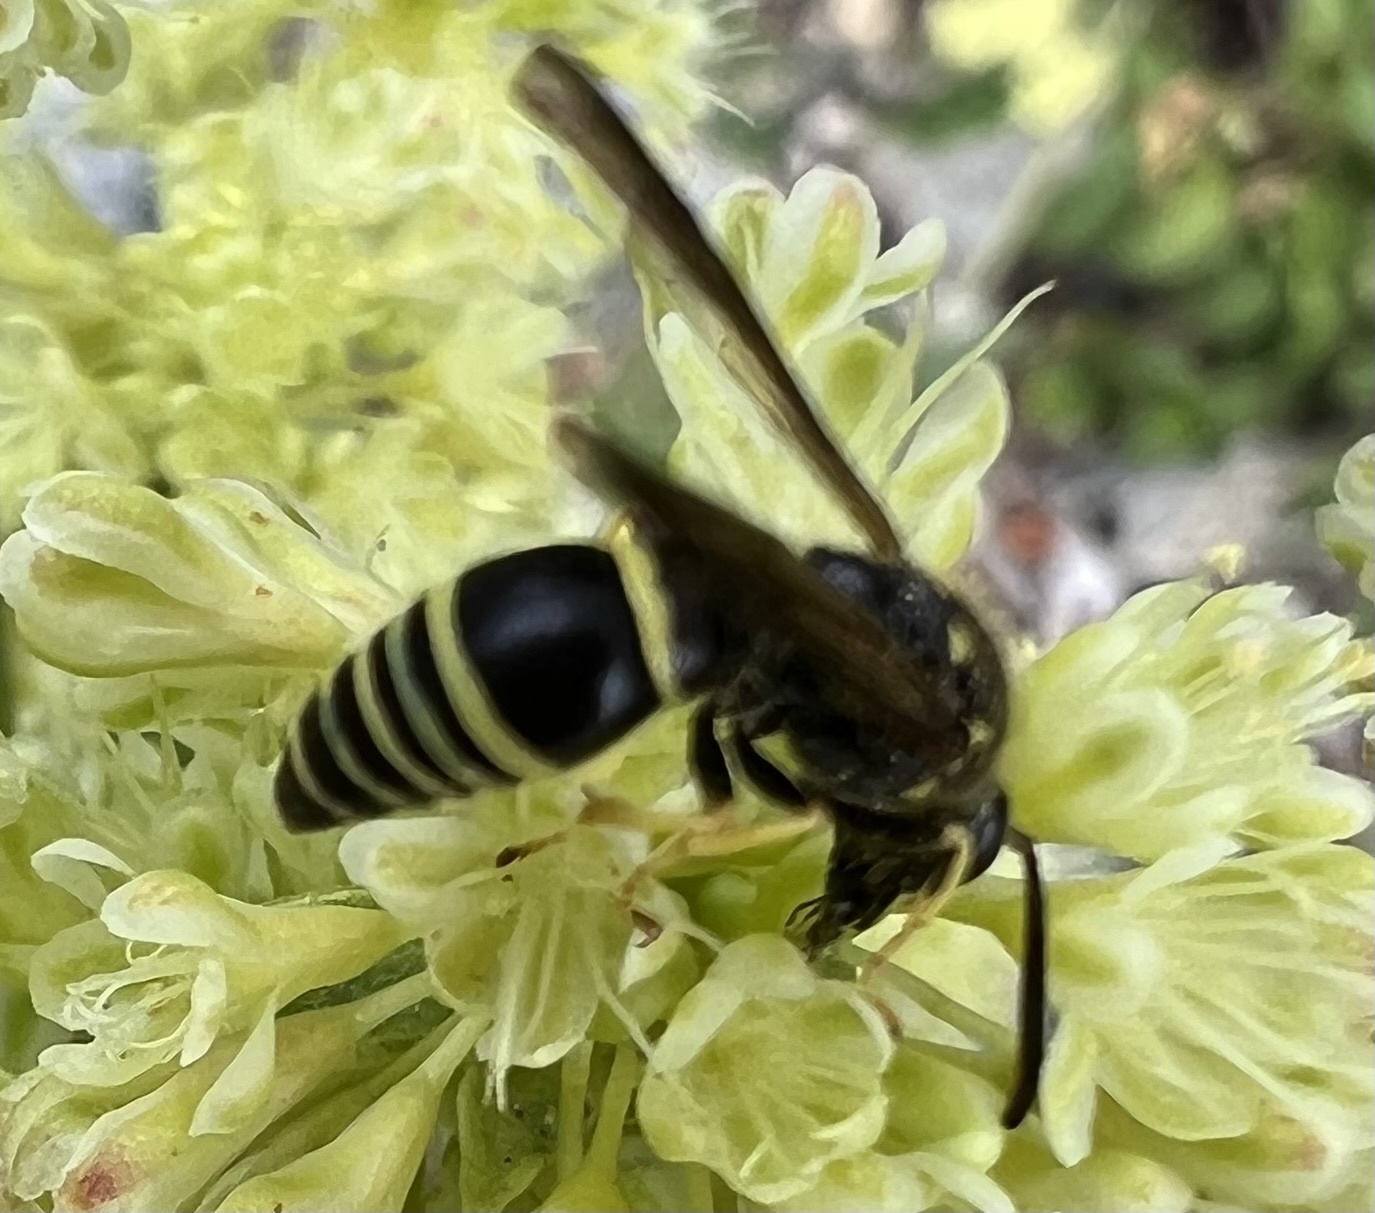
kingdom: Animalia
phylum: Arthropoda
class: Insecta
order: Hymenoptera
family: Vespidae
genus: Ancistrocerus
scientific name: Ancistrocerus
